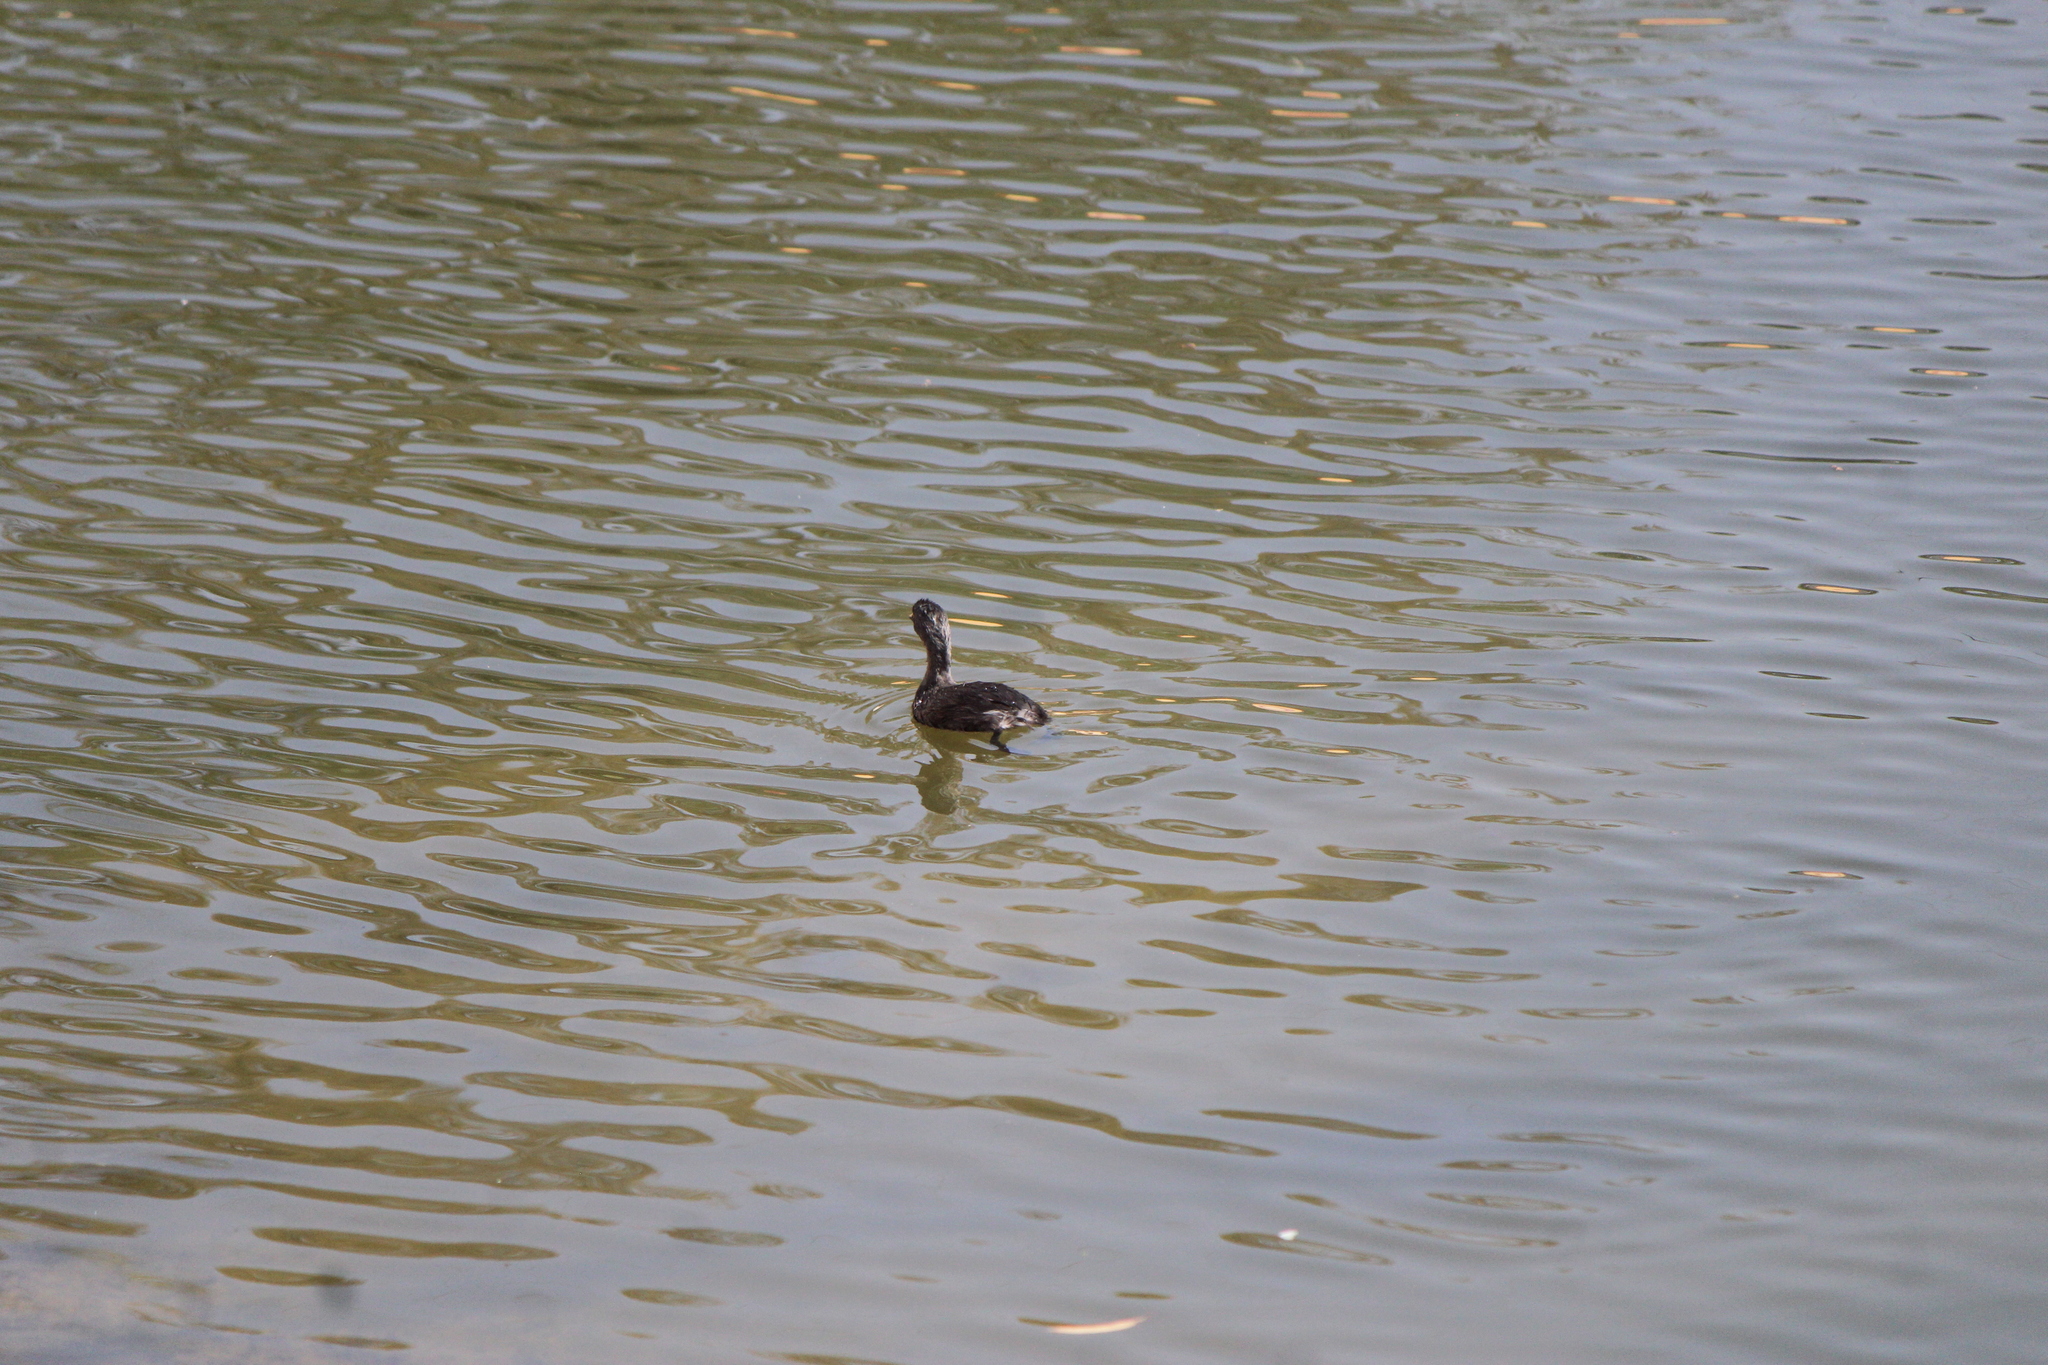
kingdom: Animalia
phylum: Chordata
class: Aves
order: Podicipediformes
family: Podicipedidae
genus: Tachybaptus
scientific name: Tachybaptus dominicus
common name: Least grebe
